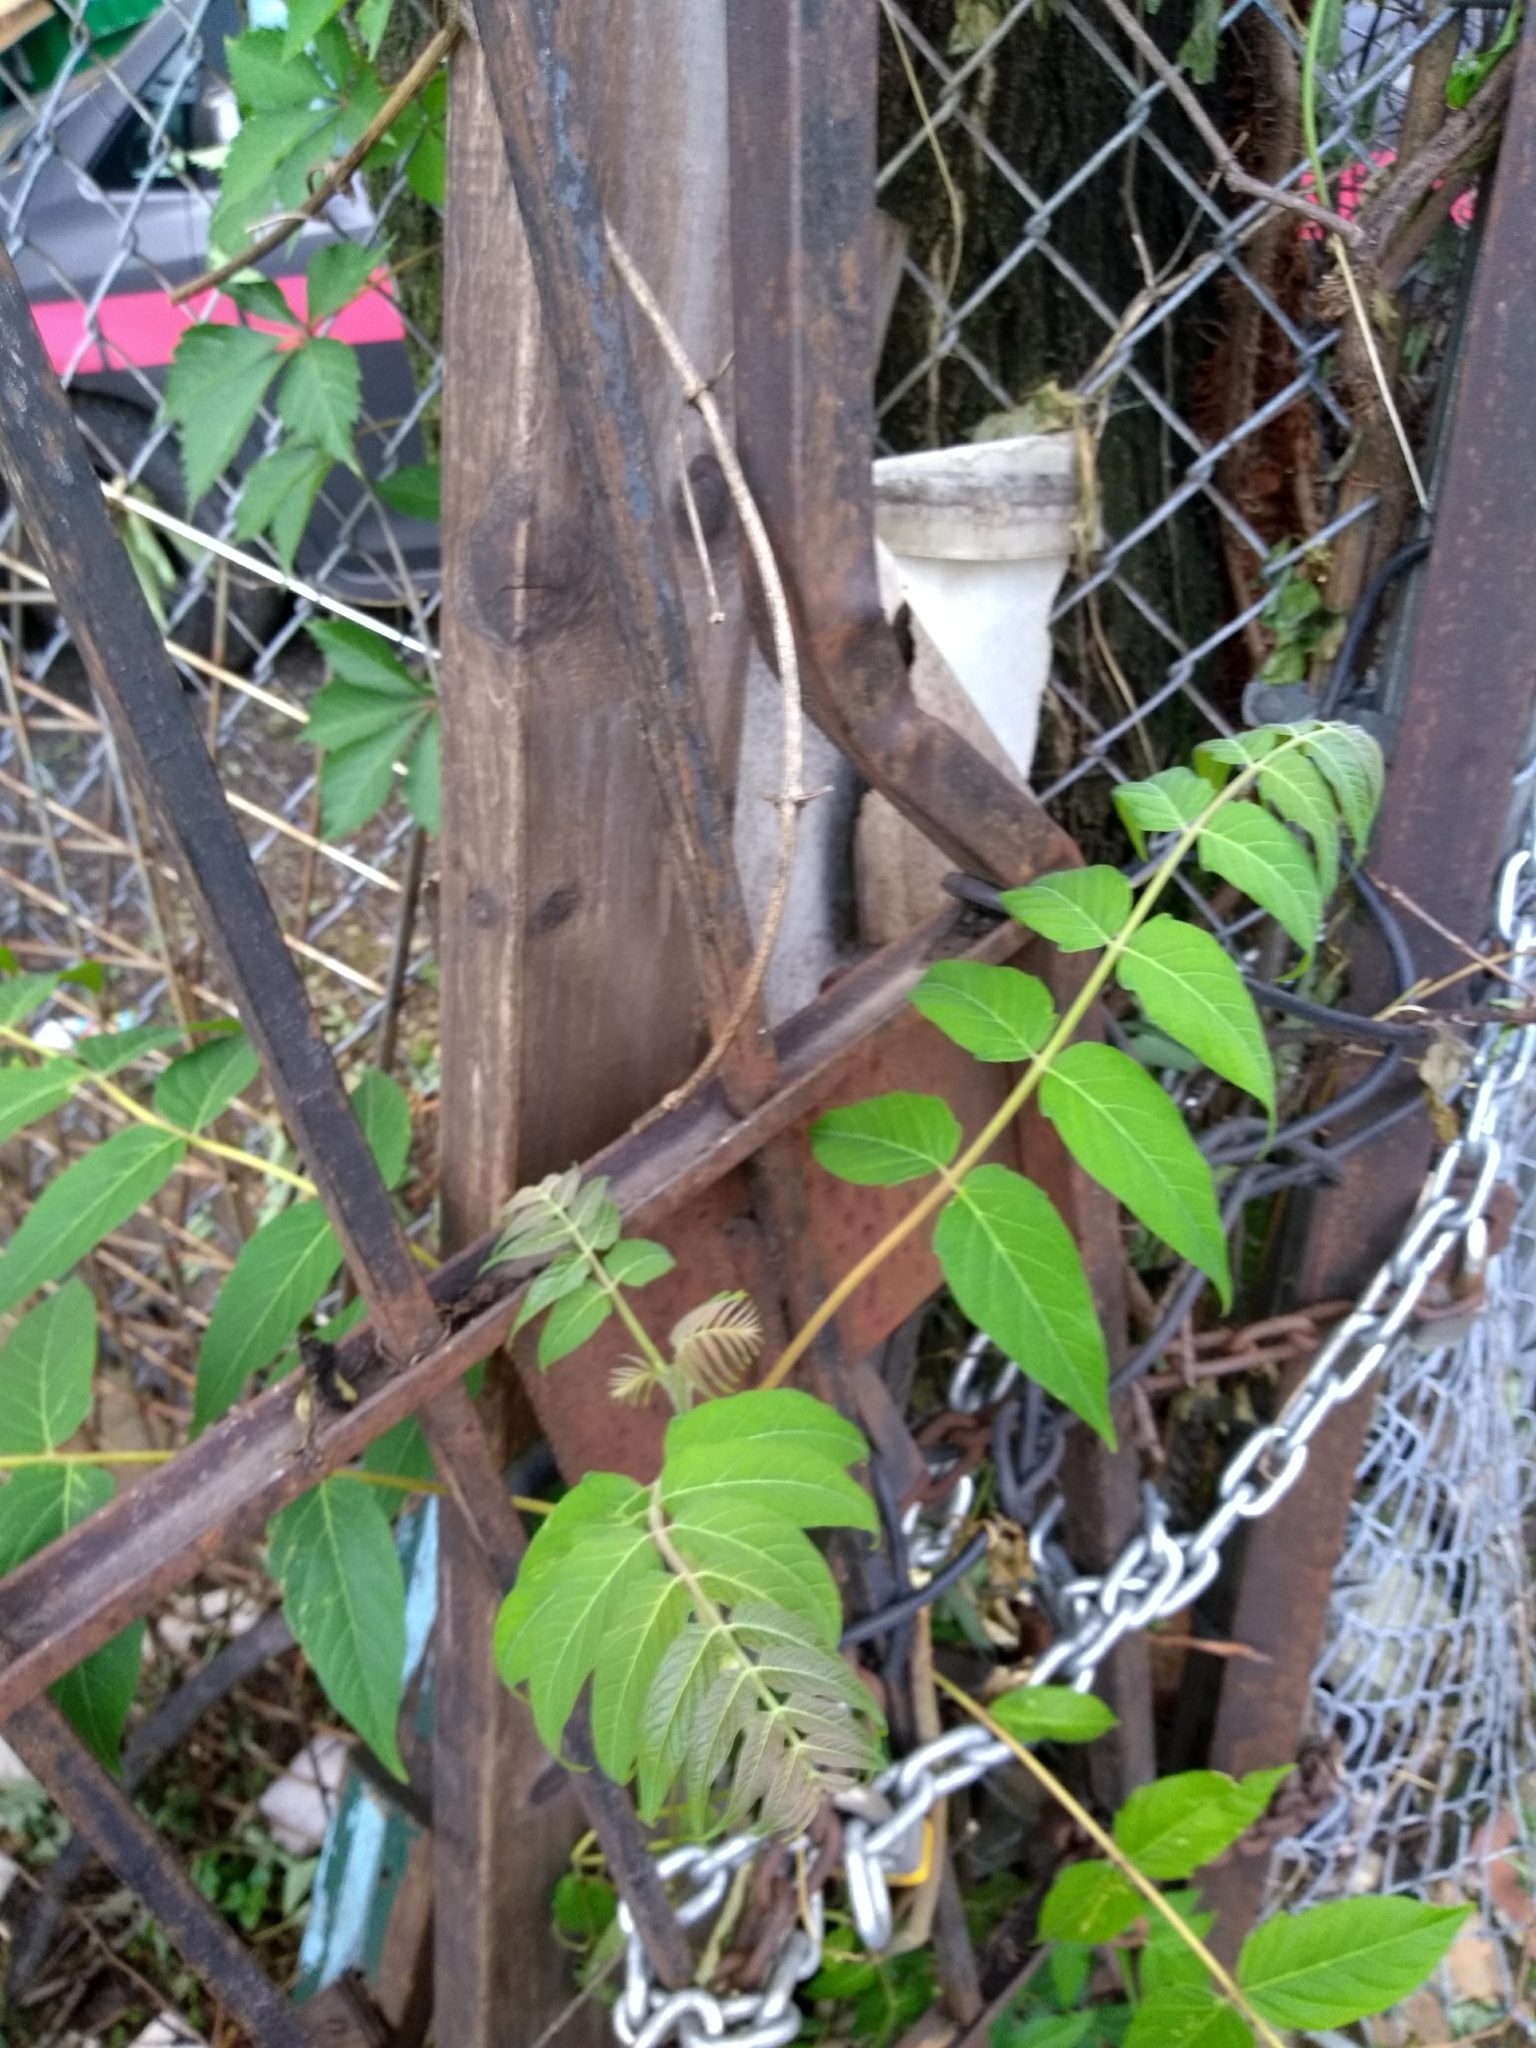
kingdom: Plantae
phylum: Tracheophyta
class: Magnoliopsida
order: Sapindales
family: Simaroubaceae
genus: Ailanthus
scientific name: Ailanthus altissima
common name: Tree-of-heaven
